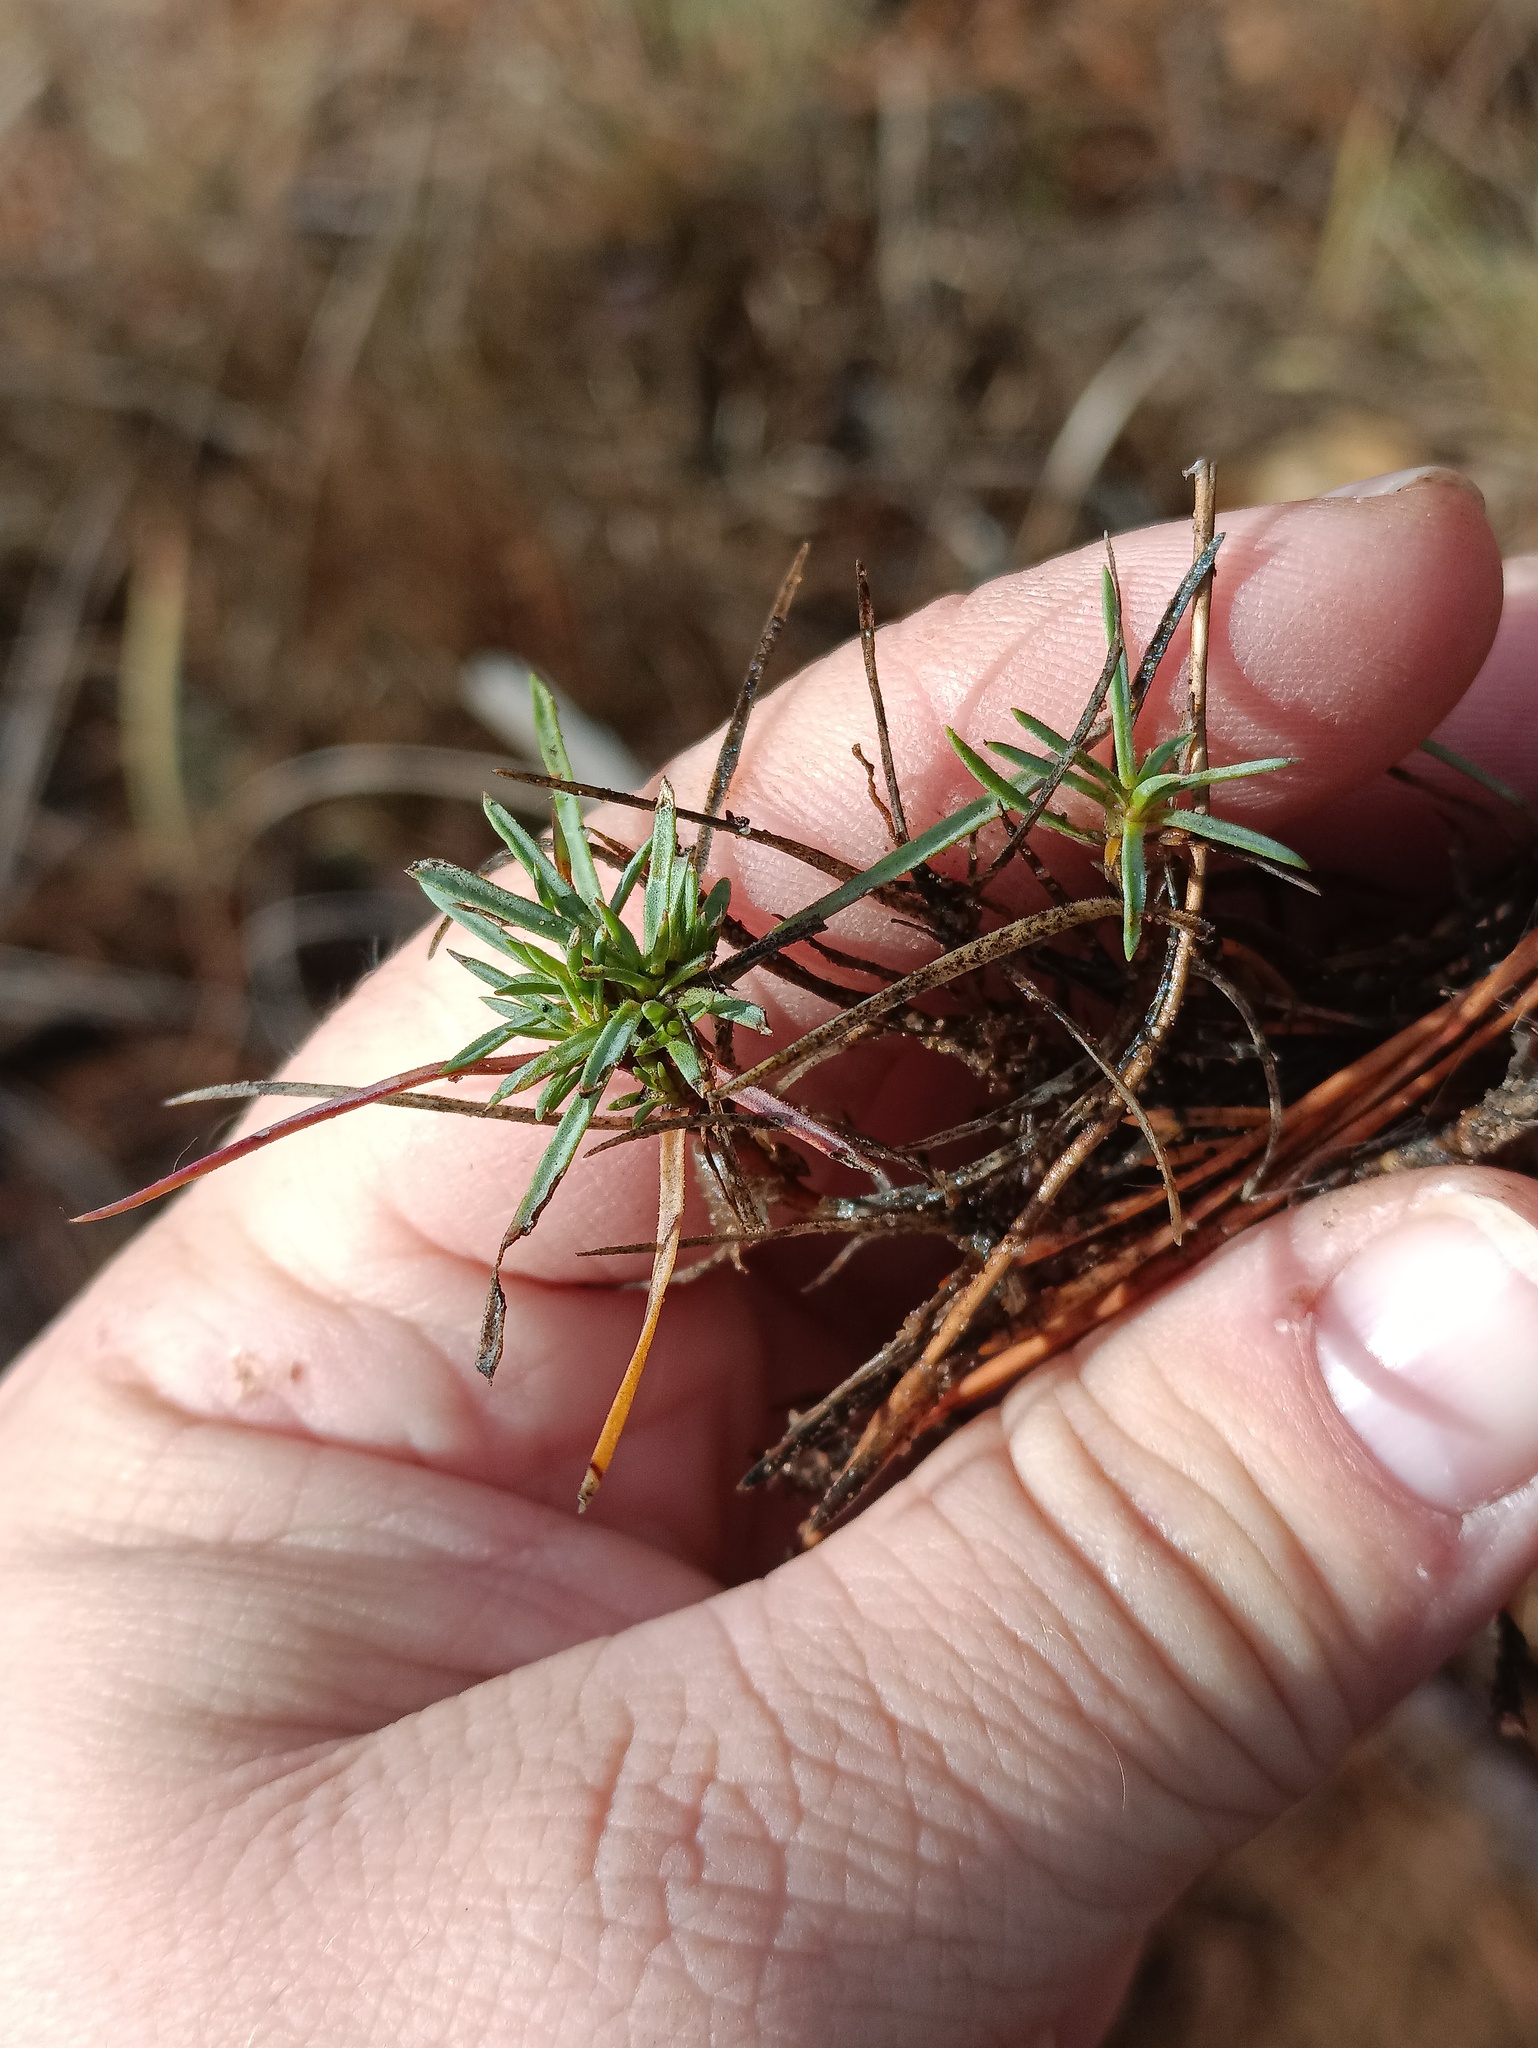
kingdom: Plantae
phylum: Tracheophyta
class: Magnoliopsida
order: Caryophyllales
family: Caryophyllaceae
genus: Dianthus
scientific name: Dianthus arenarius
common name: Stone pink
